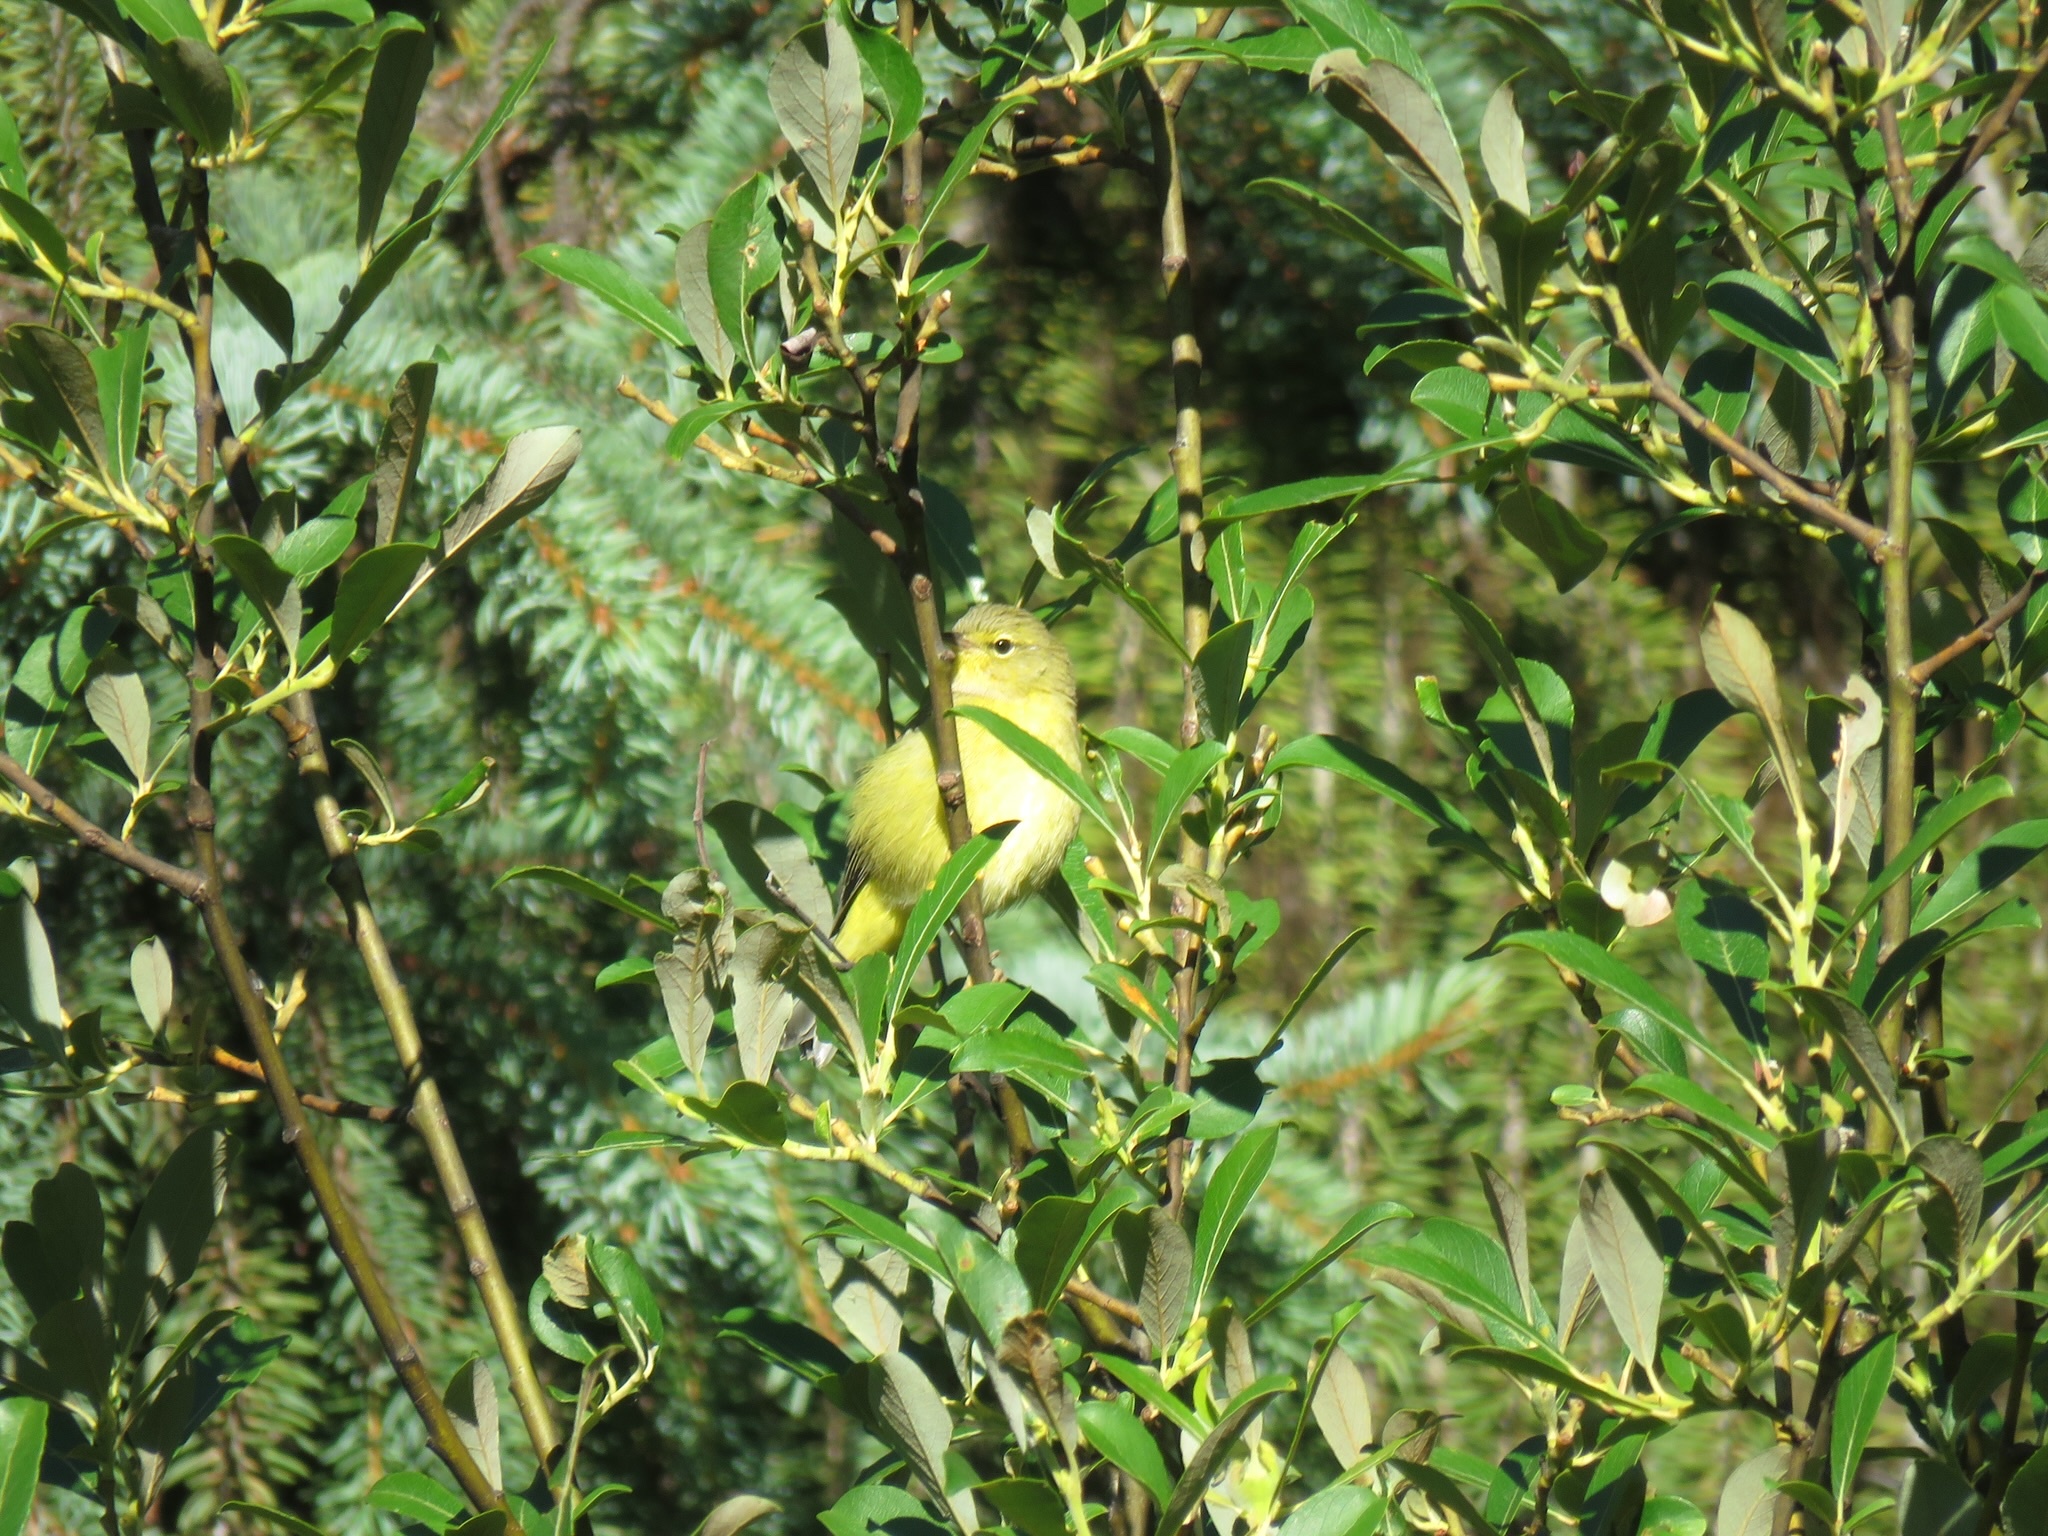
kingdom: Animalia
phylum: Chordata
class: Aves
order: Passeriformes
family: Parulidae
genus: Leiothlypis
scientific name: Leiothlypis celata
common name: Orange-crowned warbler
